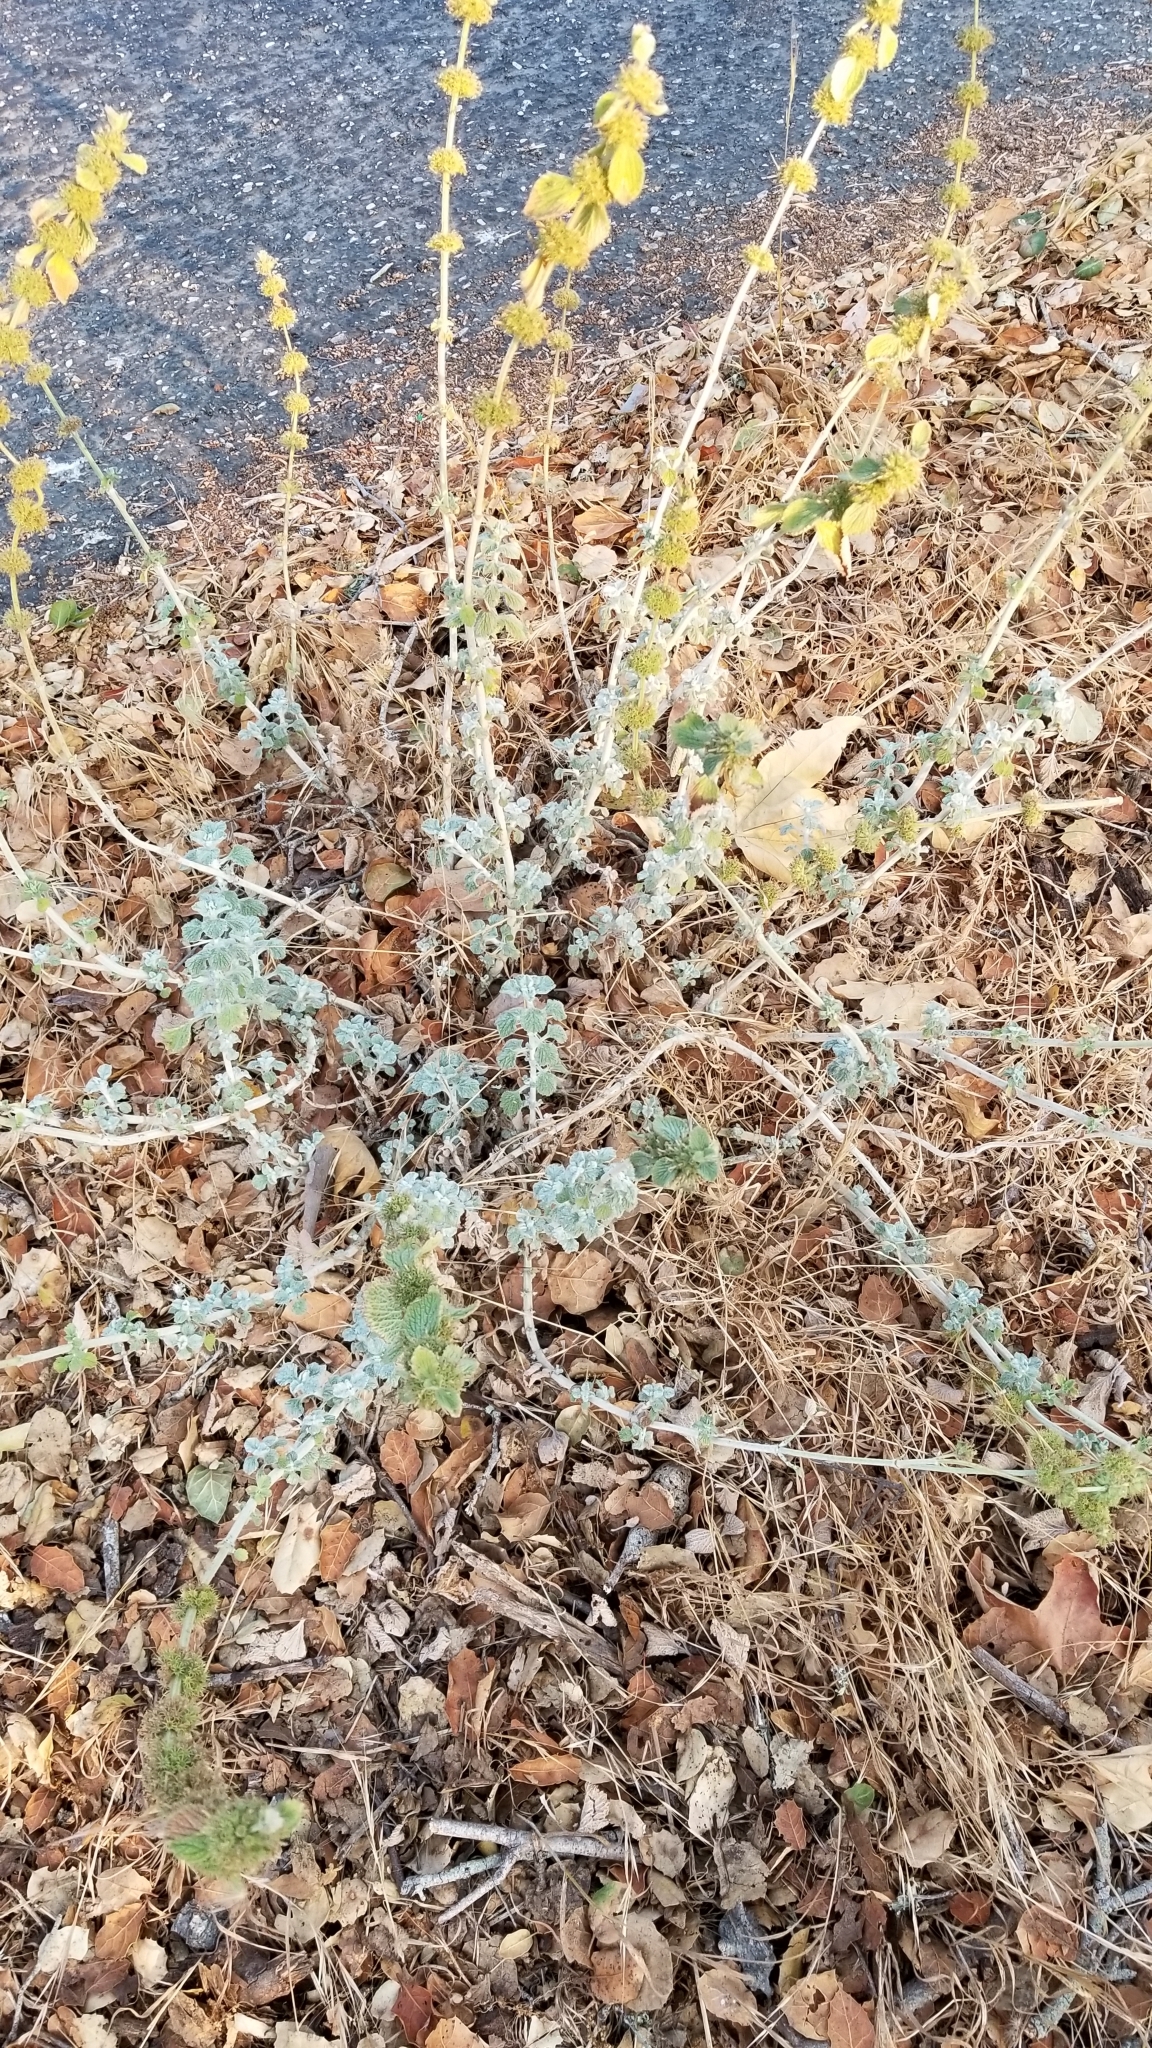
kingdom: Plantae
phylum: Tracheophyta
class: Magnoliopsida
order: Lamiales
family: Lamiaceae
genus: Marrubium
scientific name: Marrubium vulgare
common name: Horehound
